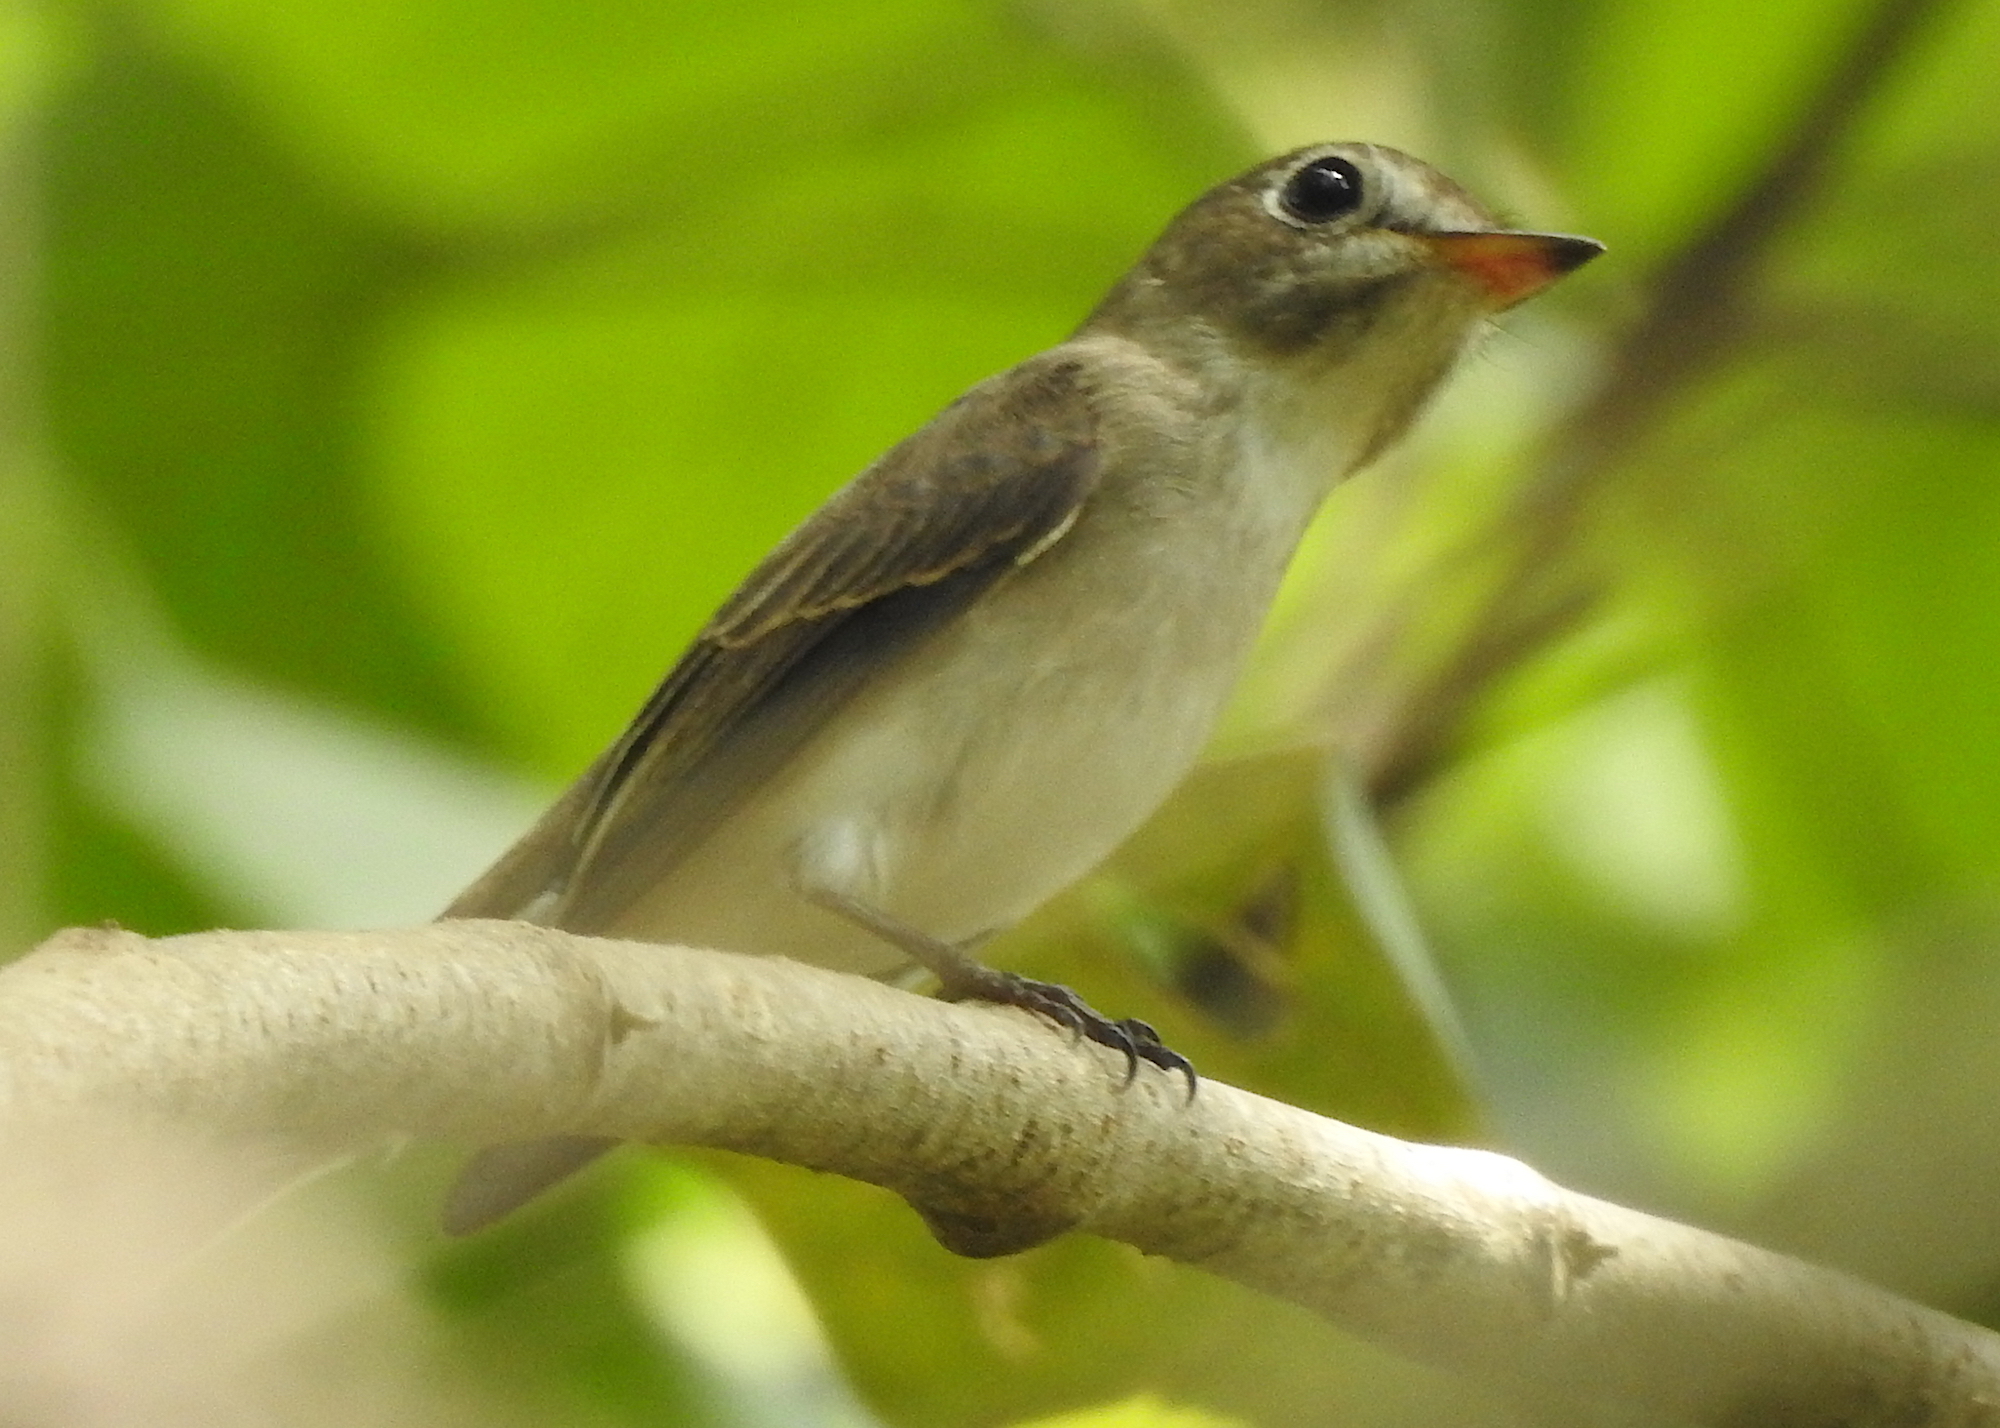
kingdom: Animalia
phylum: Chordata
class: Aves
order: Passeriformes
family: Muscicapidae
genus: Muscicapa
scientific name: Muscicapa latirostris
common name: Asian brown flycatcher
